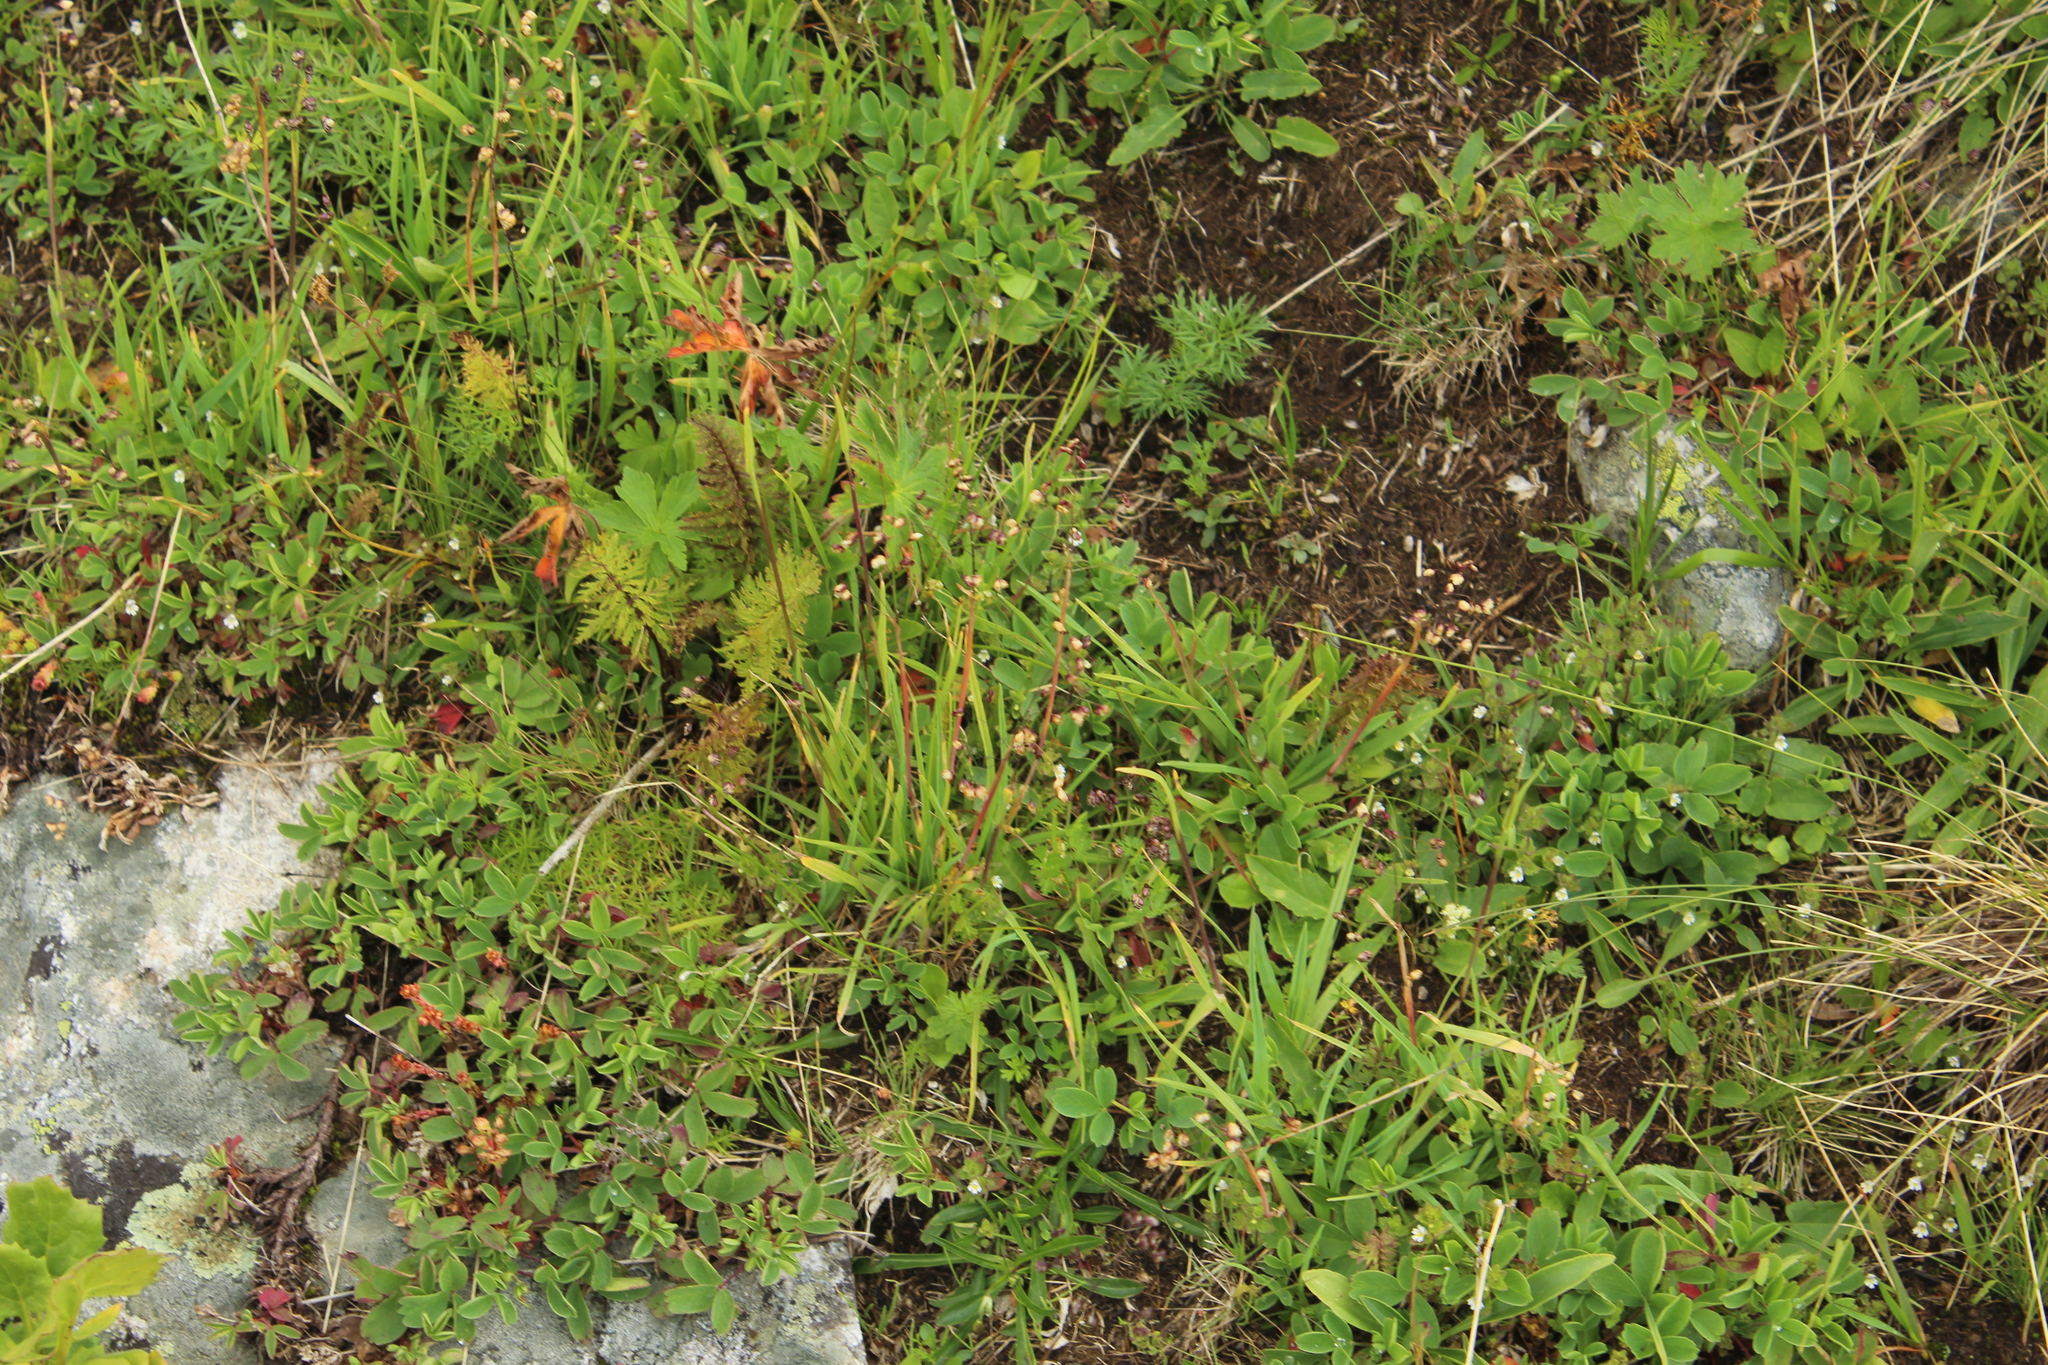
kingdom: Plantae
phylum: Tracheophyta
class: Liliopsida
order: Poales
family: Poaceae
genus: Briza
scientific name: Briza marcowiczii
